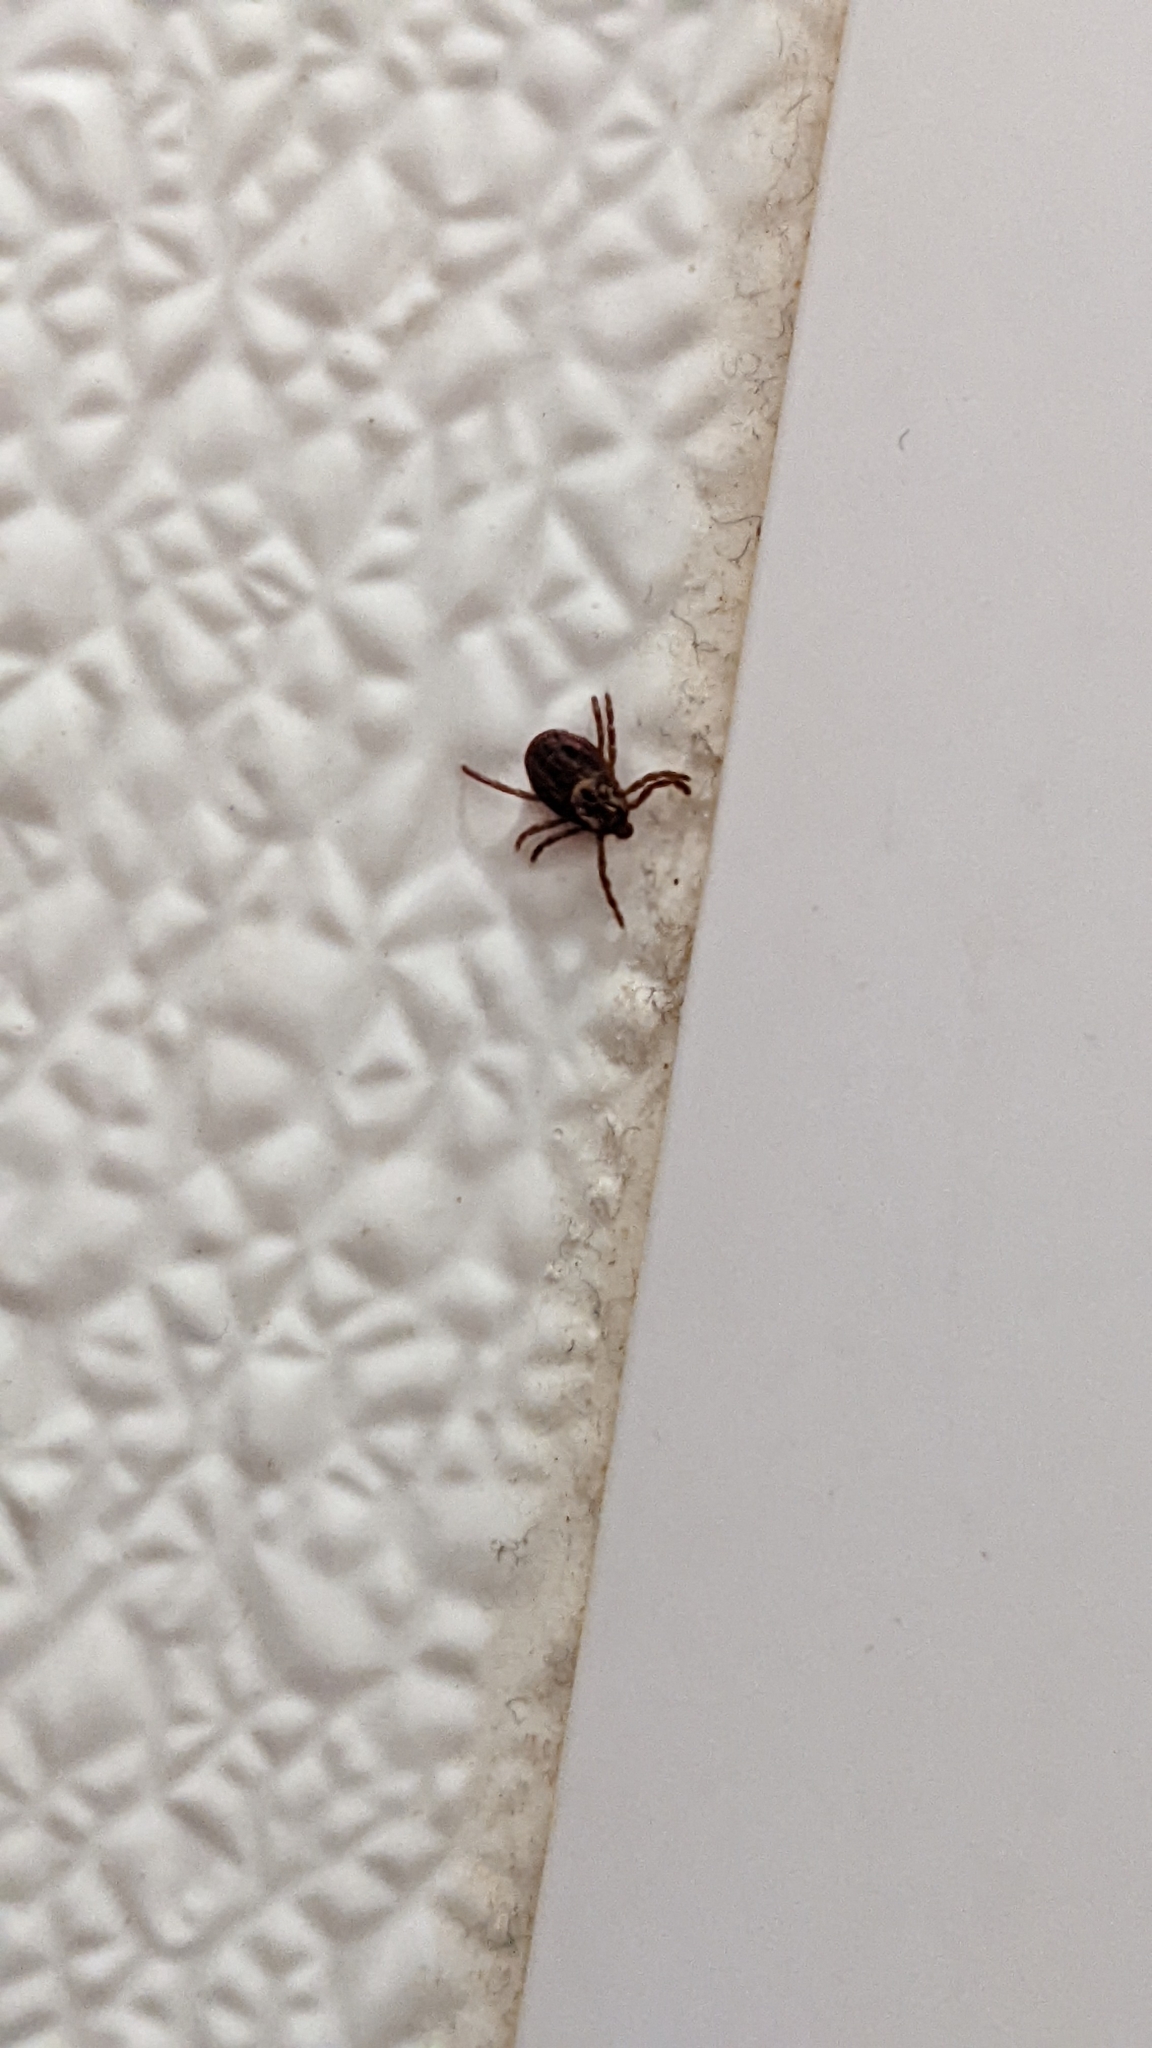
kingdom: Animalia
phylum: Arthropoda
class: Arachnida
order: Ixodida
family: Ixodidae
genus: Dermacentor
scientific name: Dermacentor variabilis
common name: American dog tick
